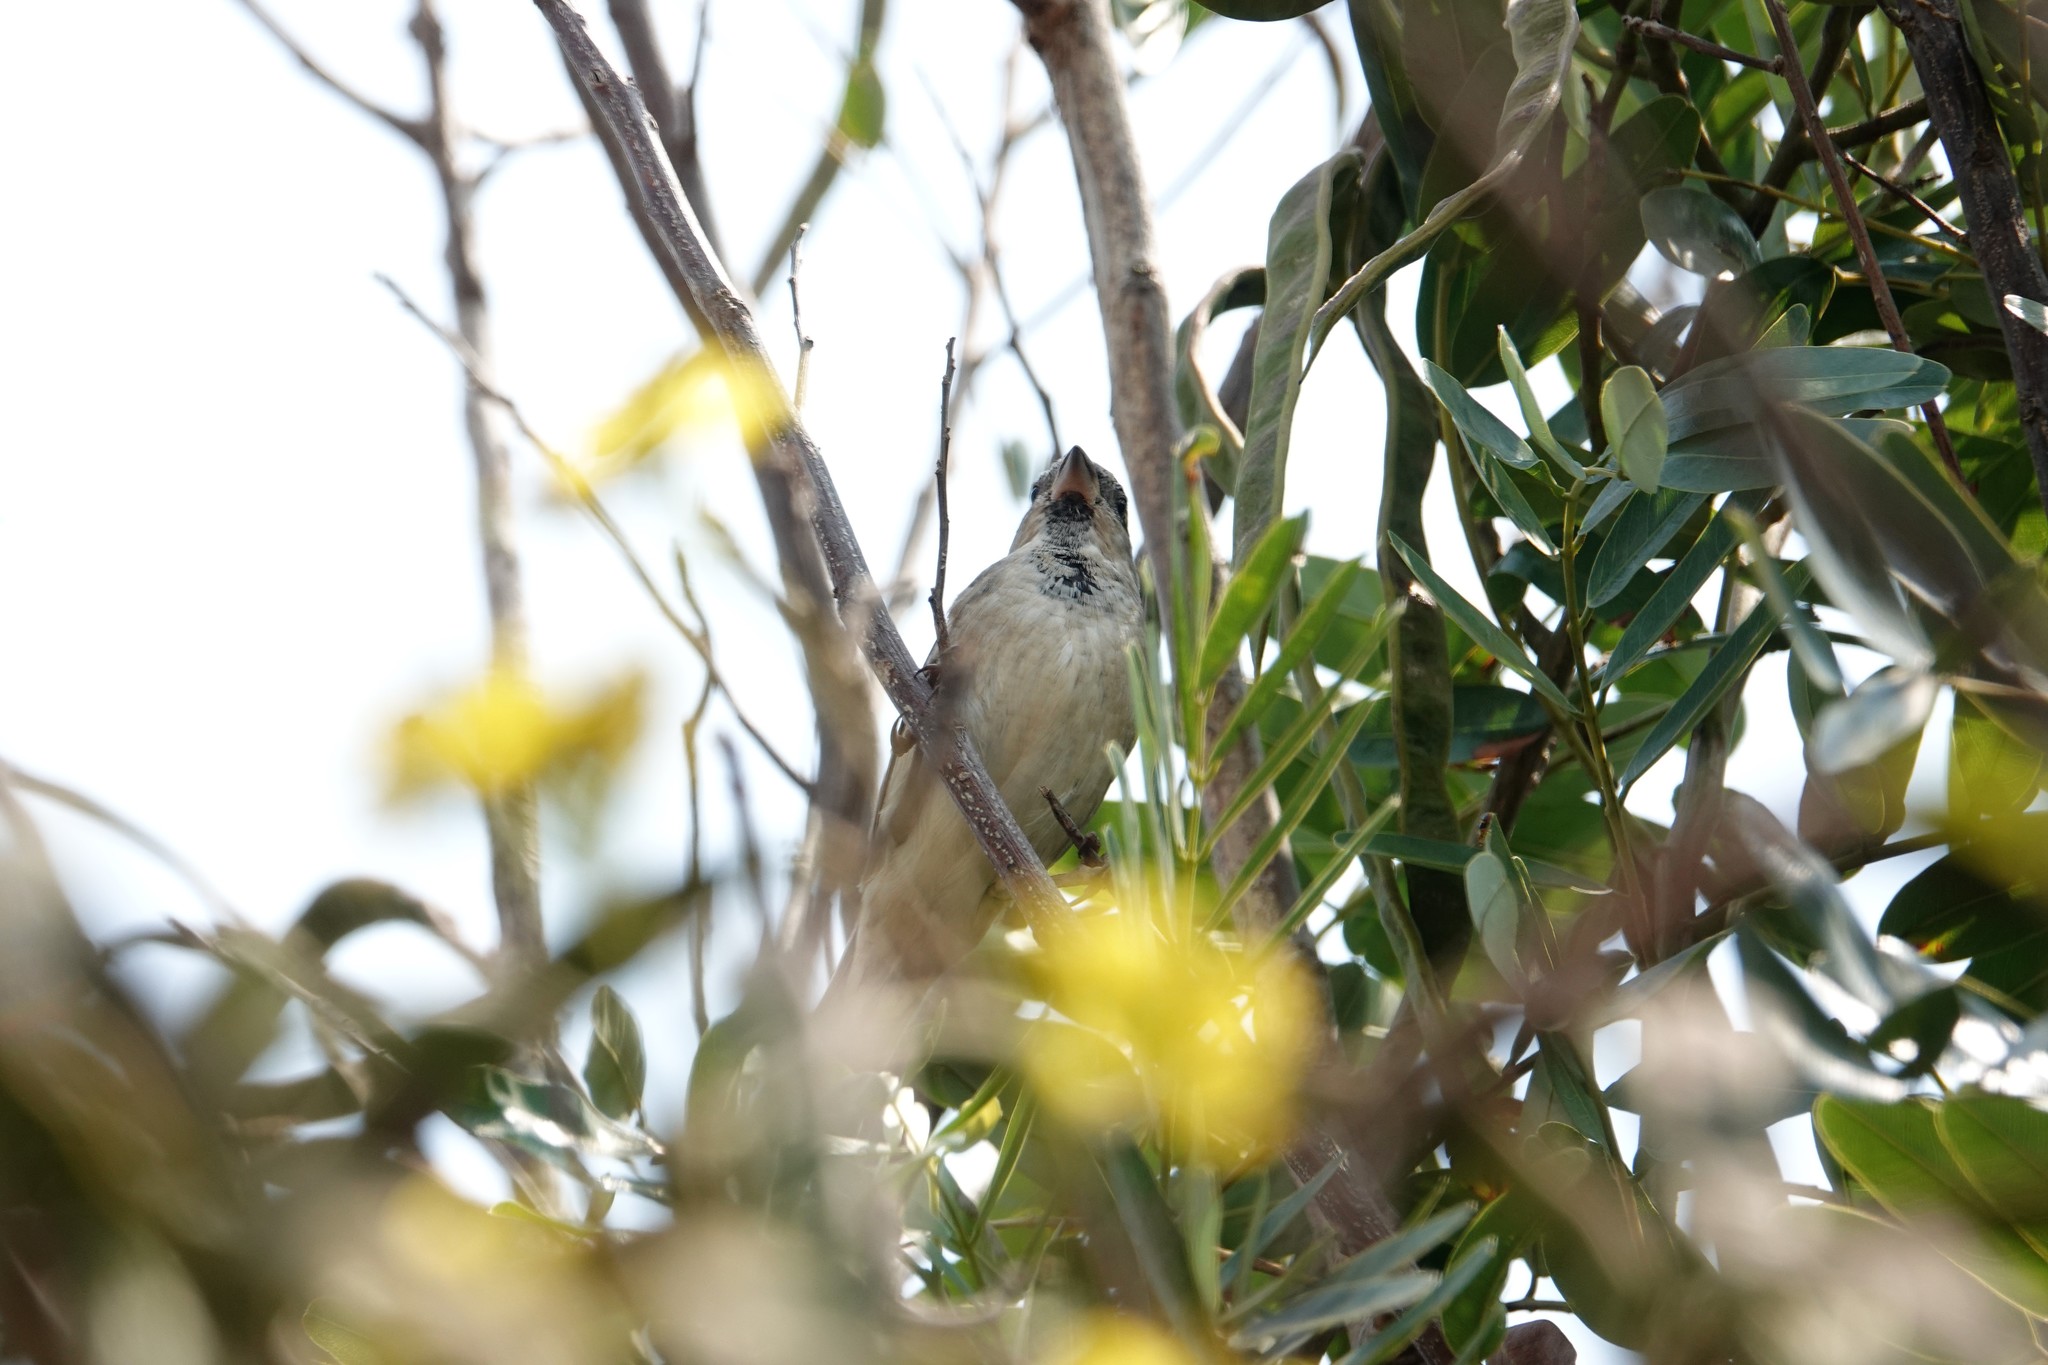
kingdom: Animalia
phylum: Chordata
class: Aves
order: Passeriformes
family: Passeridae
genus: Passer
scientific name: Passer
